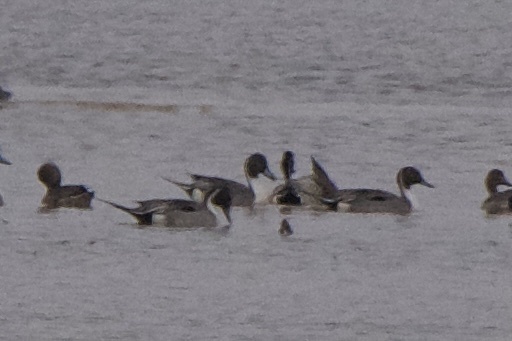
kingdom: Animalia
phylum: Chordata
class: Aves
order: Anseriformes
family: Anatidae
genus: Anas
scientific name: Anas acuta
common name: Northern pintail
